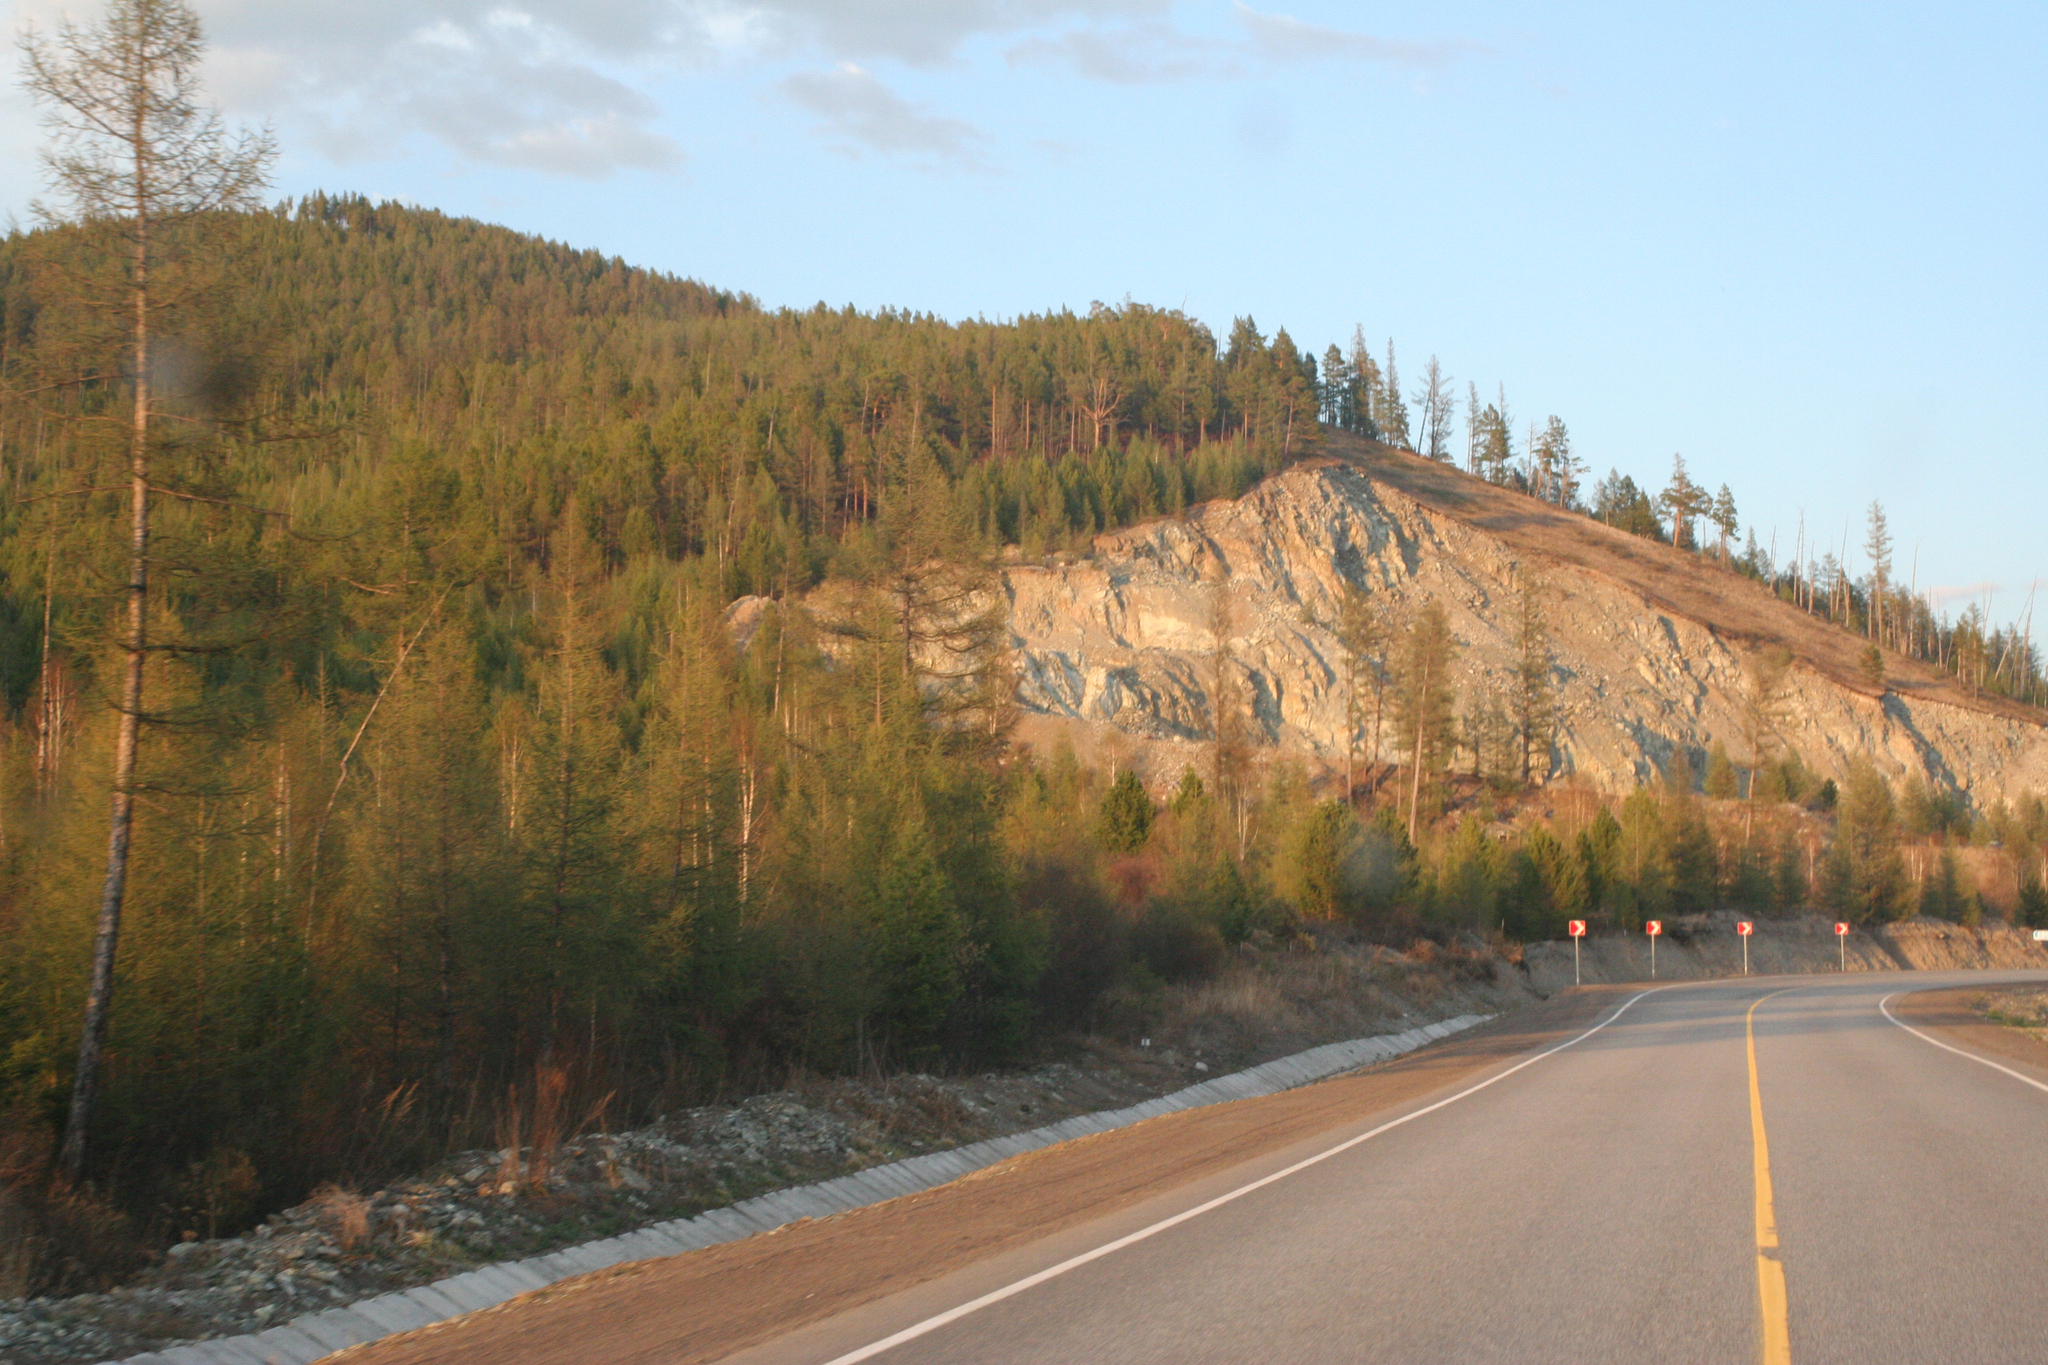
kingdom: Plantae
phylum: Tracheophyta
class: Pinopsida
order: Pinales
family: Pinaceae
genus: Larix
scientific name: Larix sibirica
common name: Siberian larch
